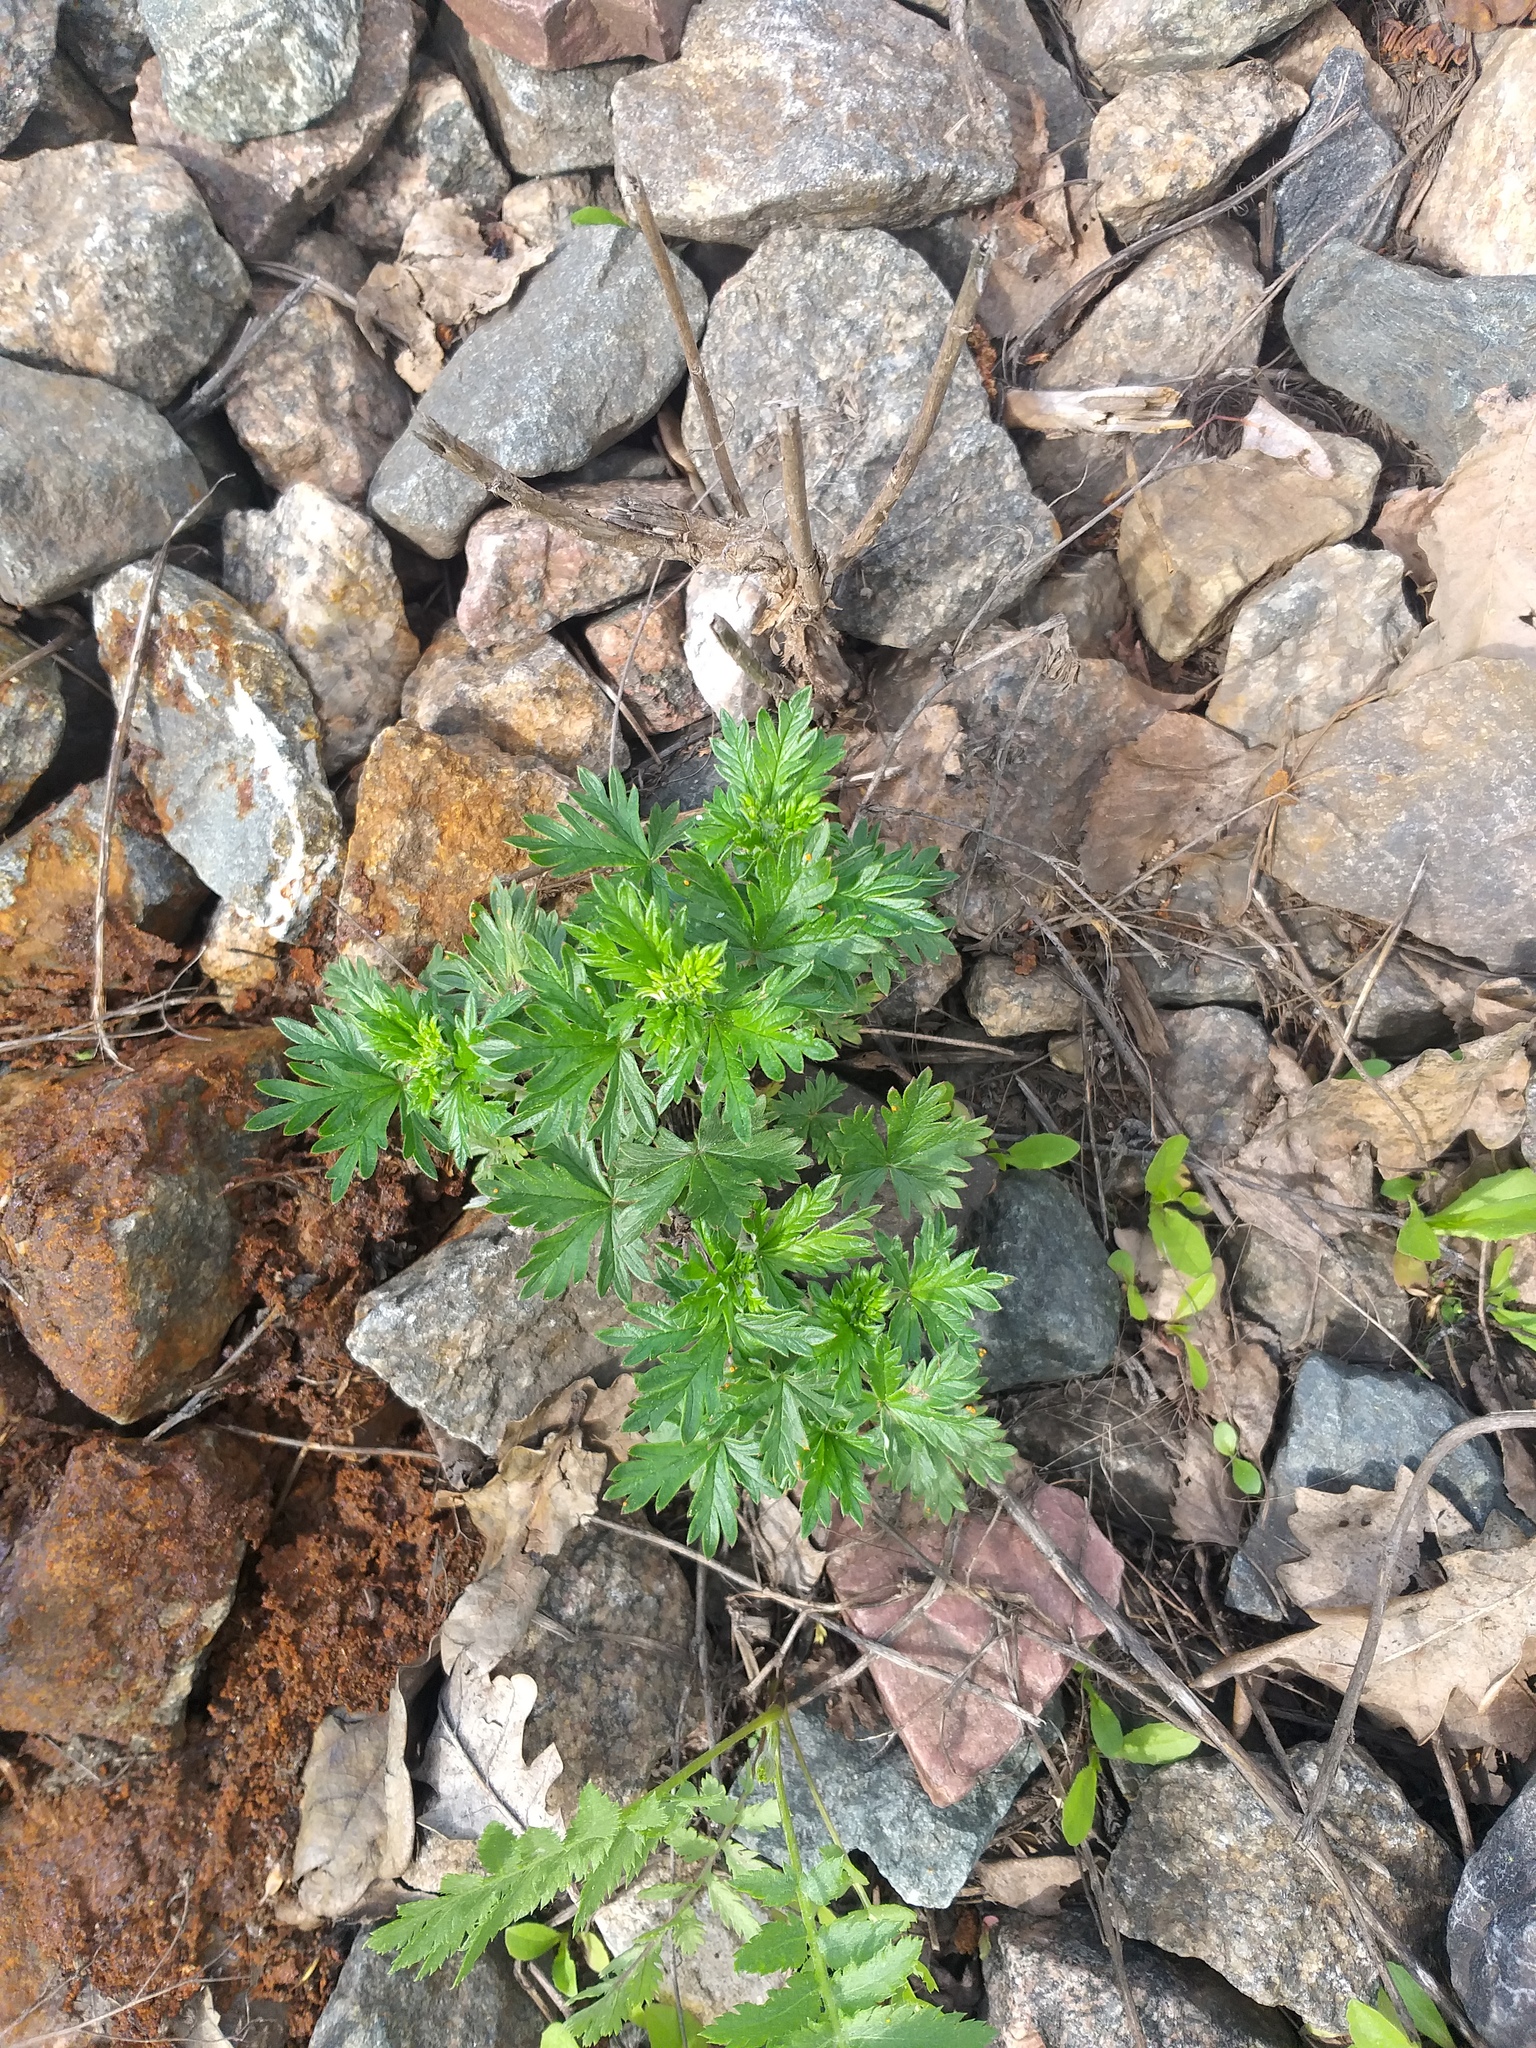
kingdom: Plantae
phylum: Tracheophyta
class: Magnoliopsida
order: Rosales
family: Rosaceae
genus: Potentilla
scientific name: Potentilla argentea
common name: Hoary cinquefoil
